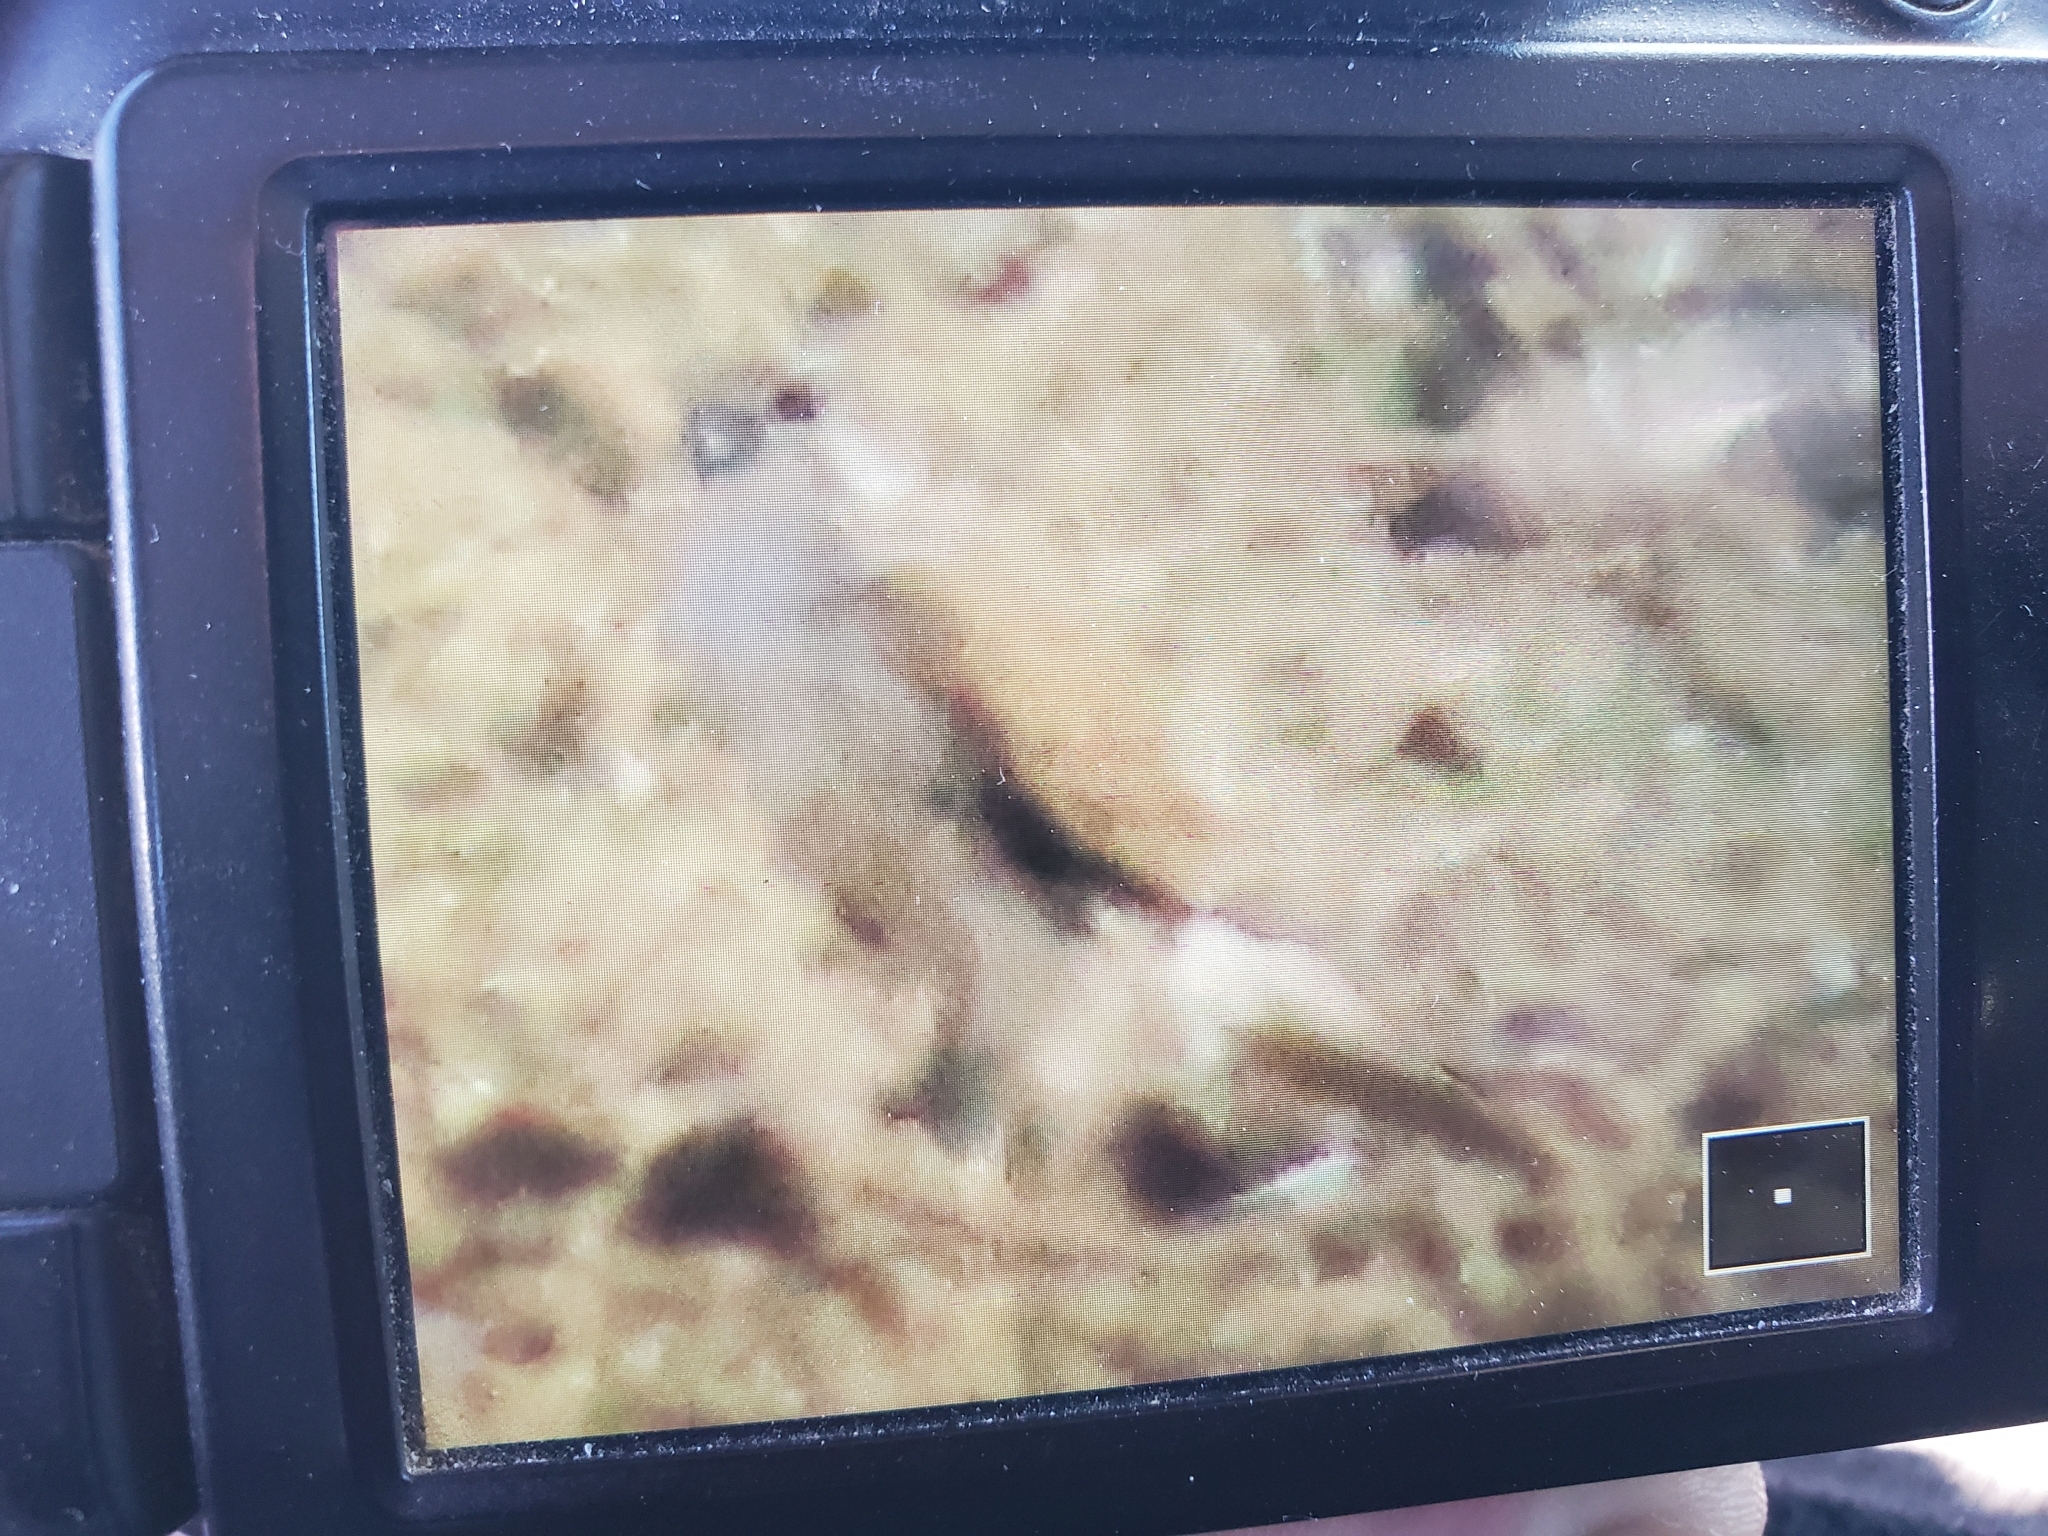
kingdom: Animalia
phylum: Chordata
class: Aves
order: Falconiformes
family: Falconidae
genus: Falco
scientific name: Falco mexicanus
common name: Prairie falcon
